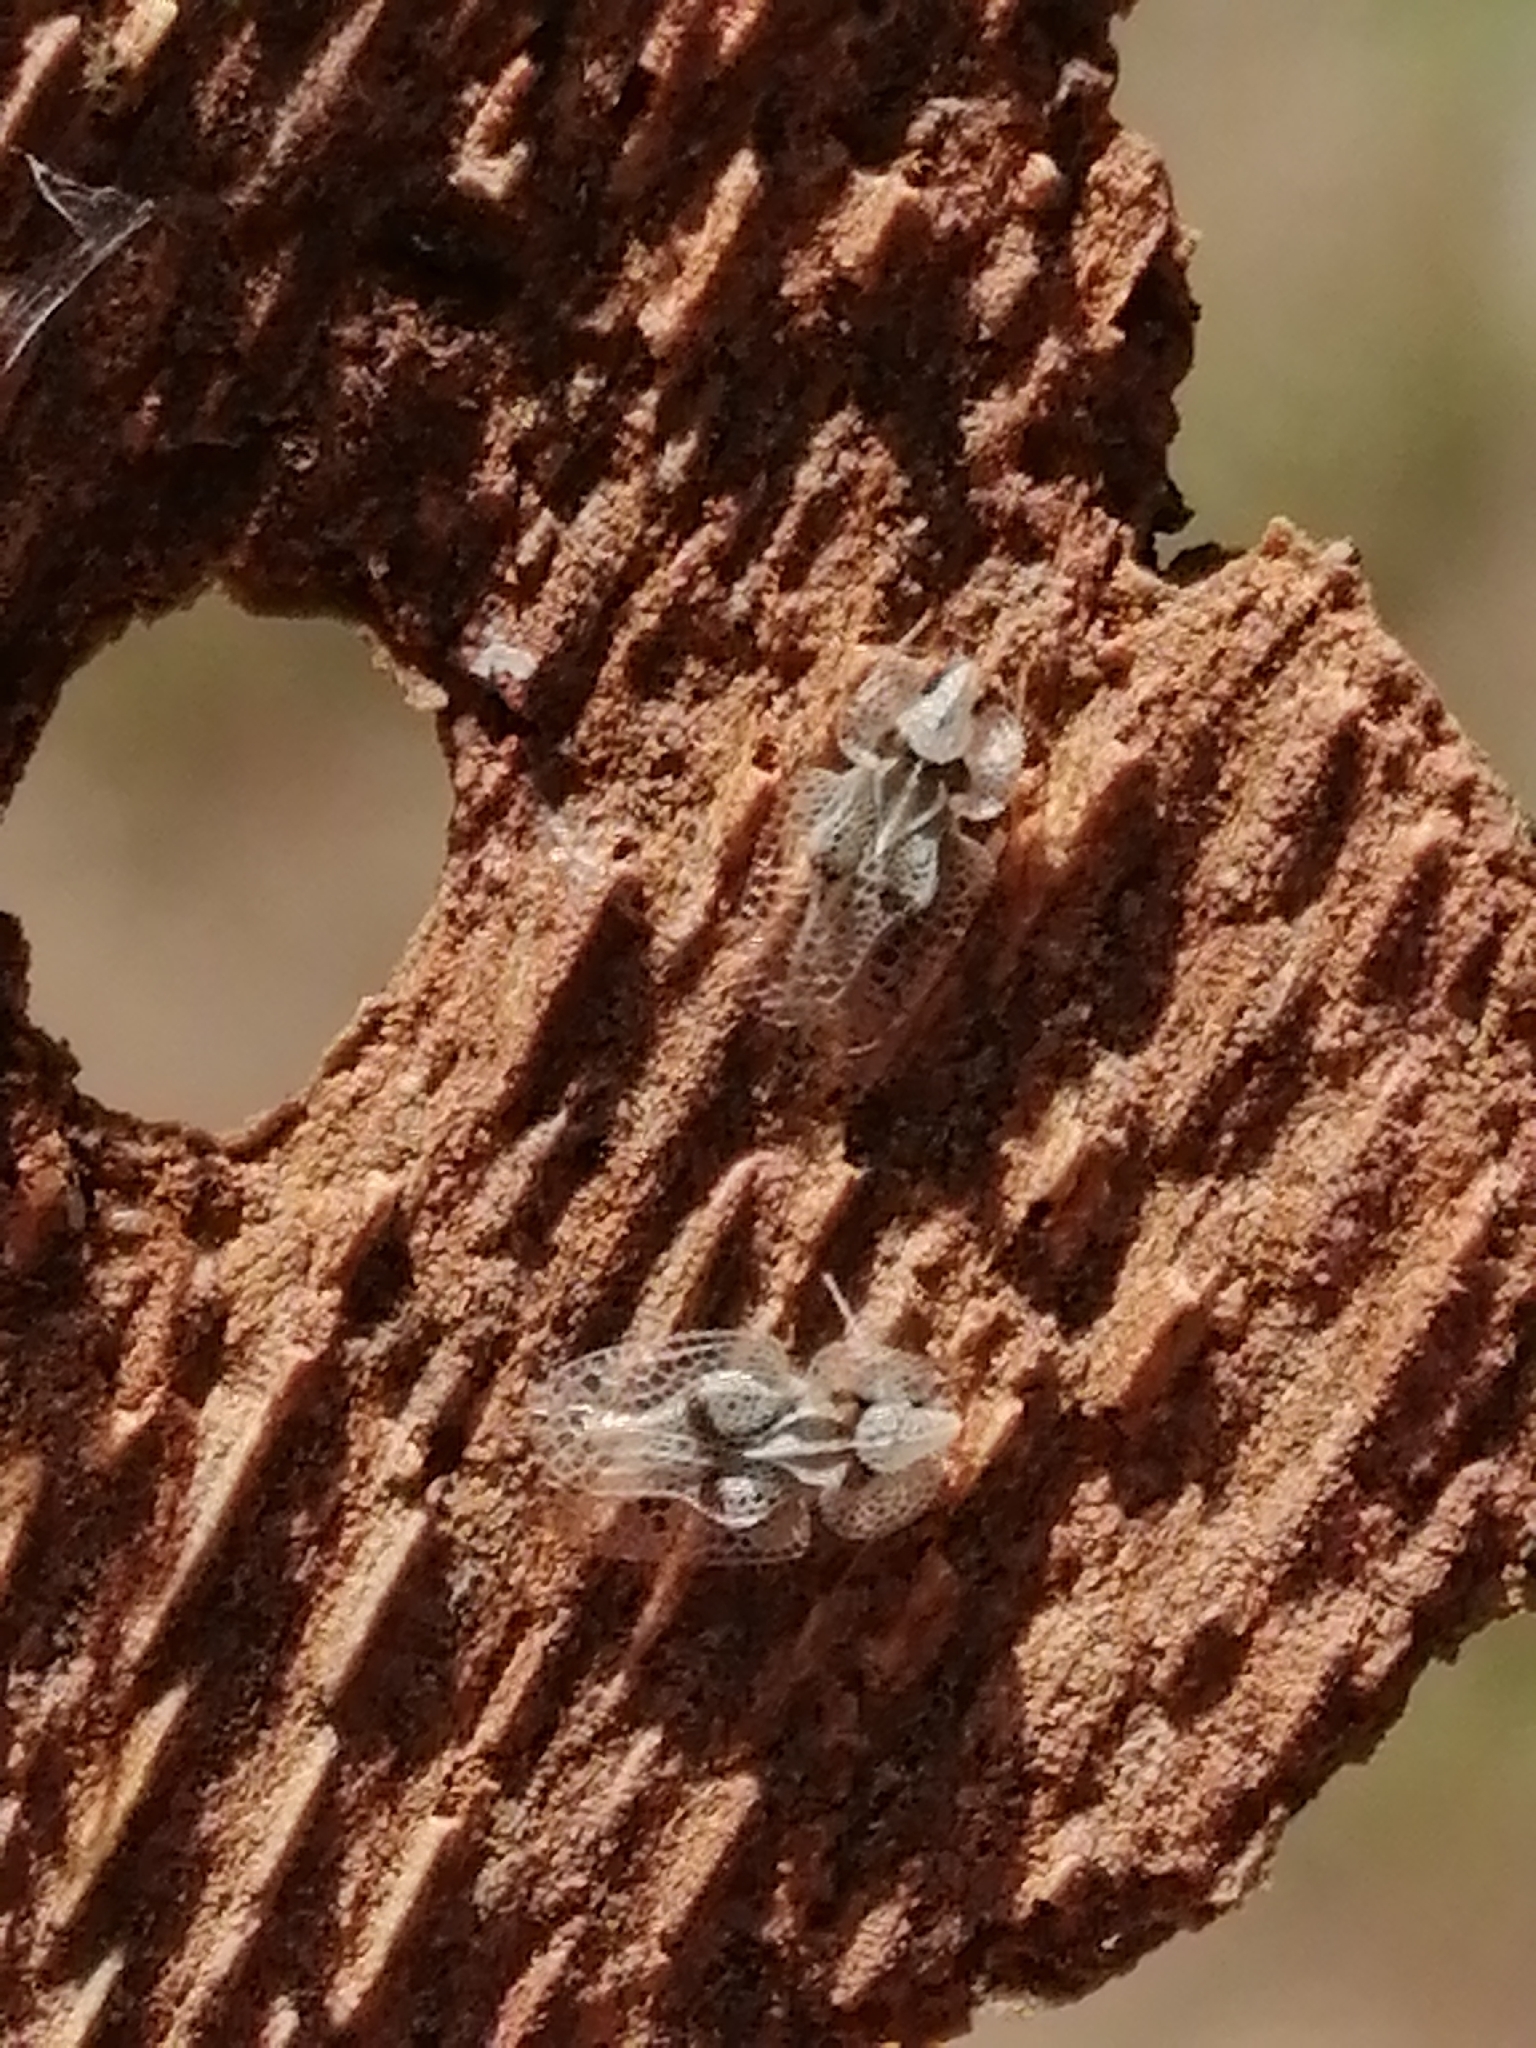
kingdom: Animalia
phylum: Arthropoda
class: Insecta
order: Hemiptera
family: Tingidae
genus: Corythucha
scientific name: Corythucha ciliata
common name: Sycamore lace bug
